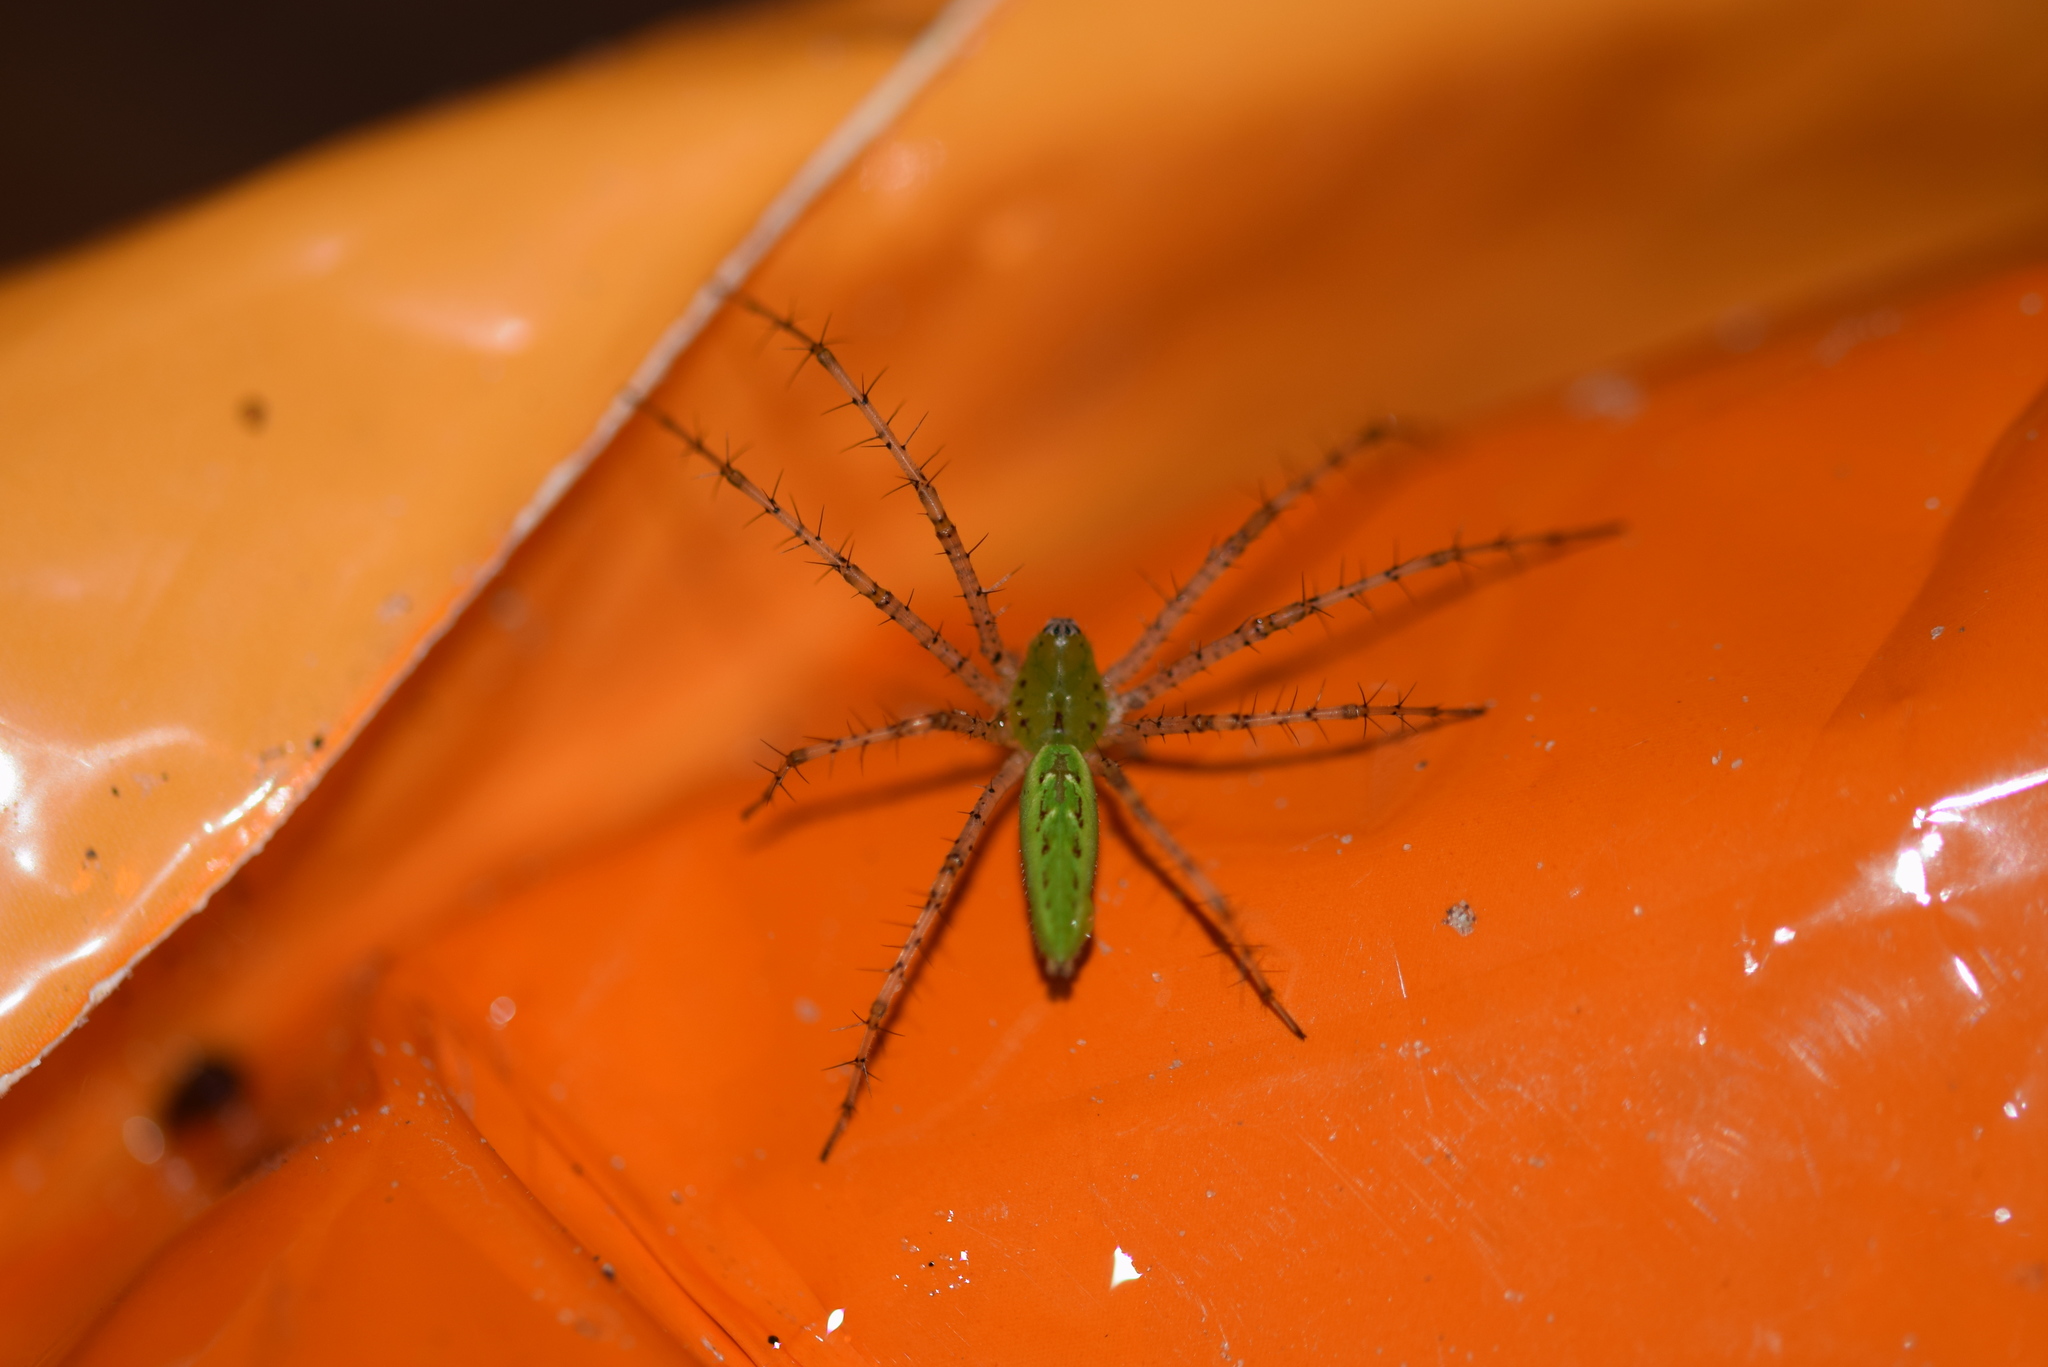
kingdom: Animalia
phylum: Arthropoda
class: Arachnida
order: Araneae
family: Oxyopidae
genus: Peucetia
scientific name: Peucetia viridans
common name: Lynx spiders
